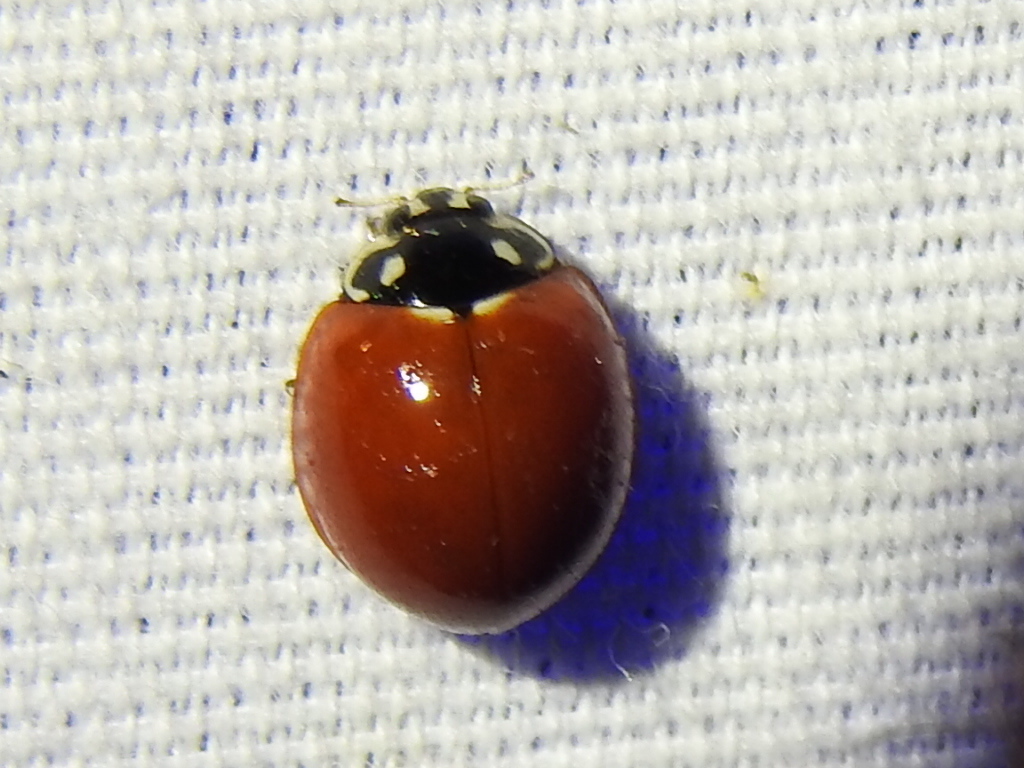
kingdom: Animalia
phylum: Arthropoda
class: Insecta
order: Coleoptera
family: Coccinellidae
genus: Cycloneda
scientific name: Cycloneda sanguinea
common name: Ladybird beetle
